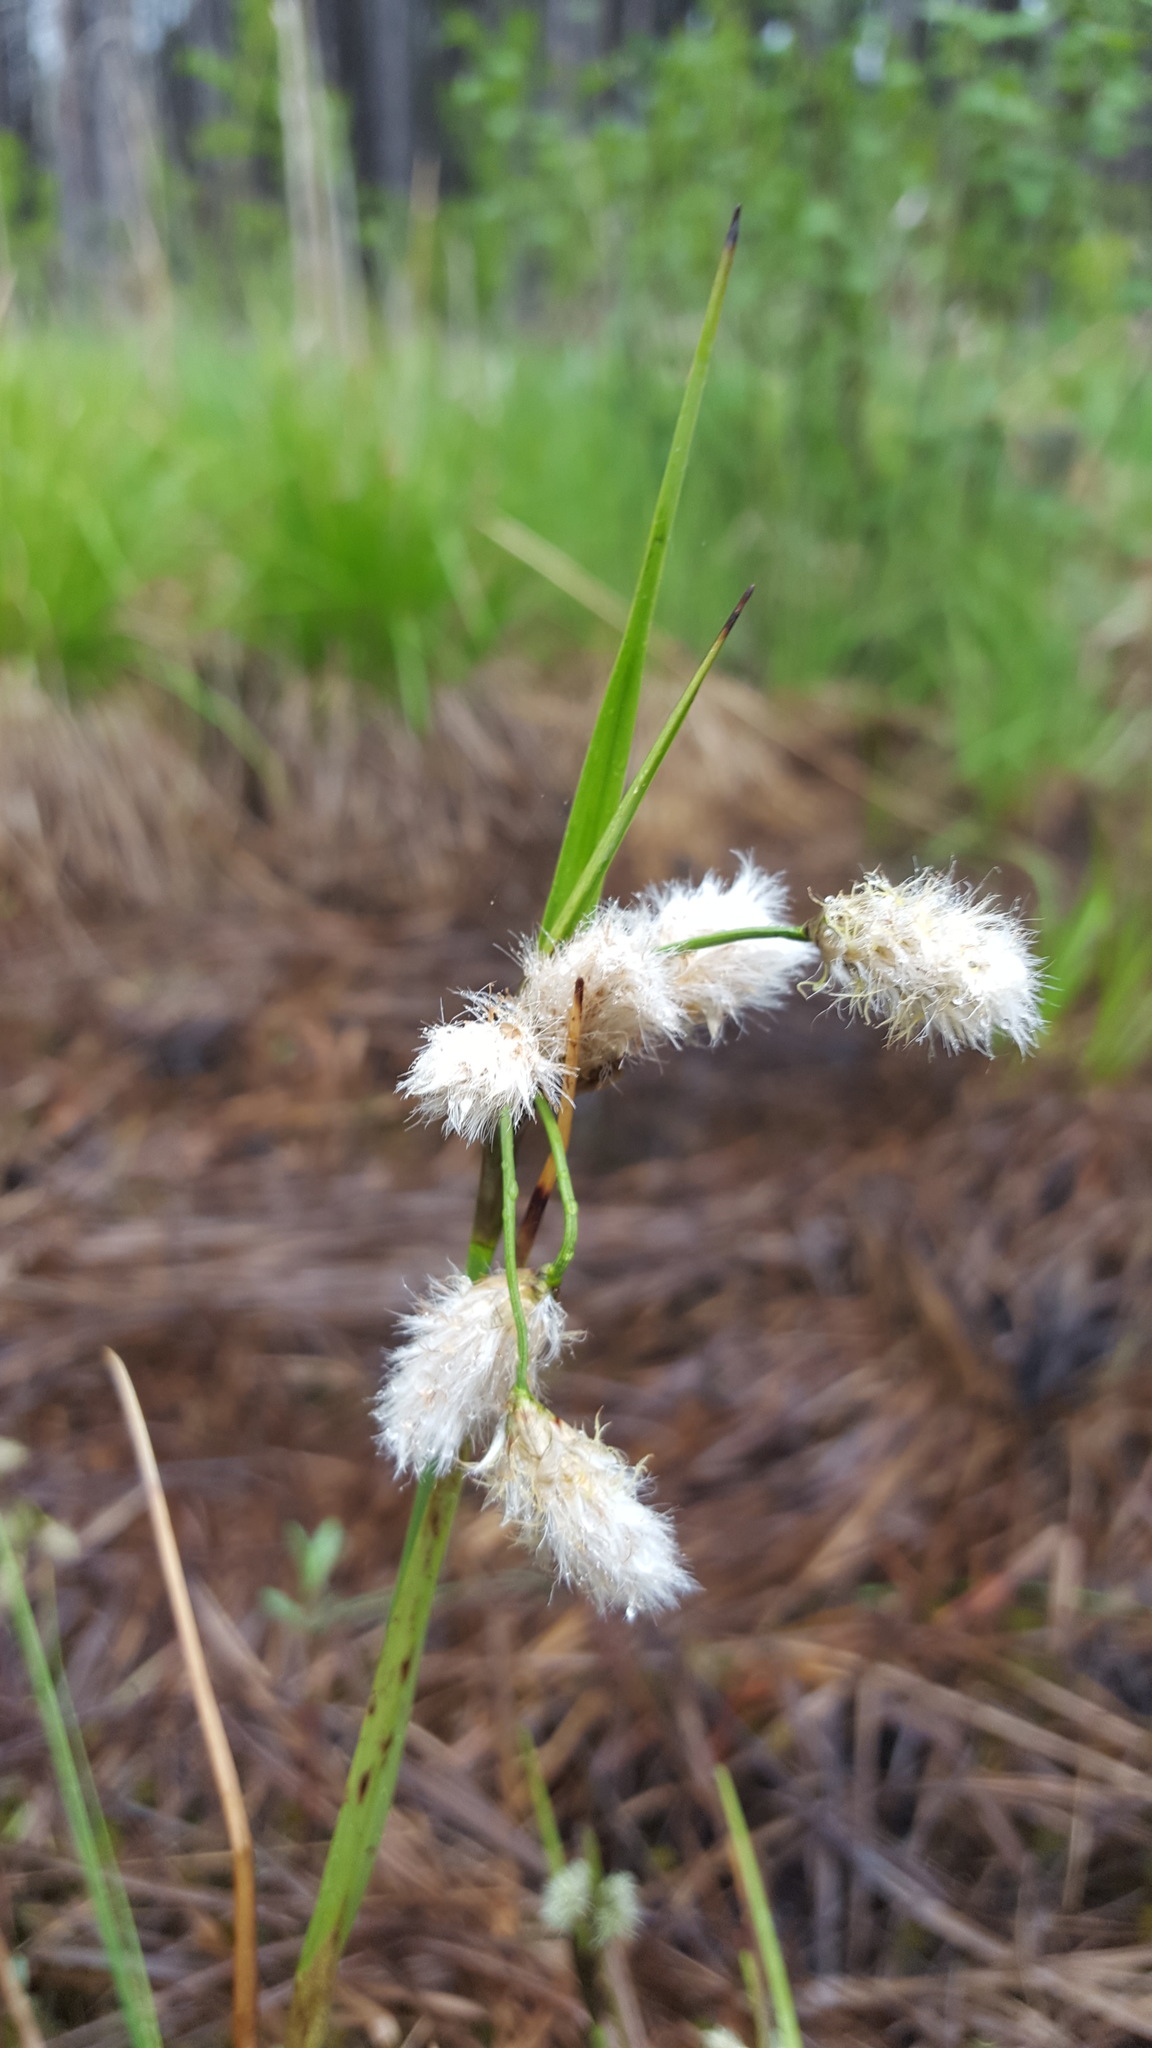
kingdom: Plantae
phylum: Tracheophyta
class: Liliopsida
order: Poales
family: Cyperaceae
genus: Eriophorum
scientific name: Eriophorum angustifolium
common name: Common cottongrass
